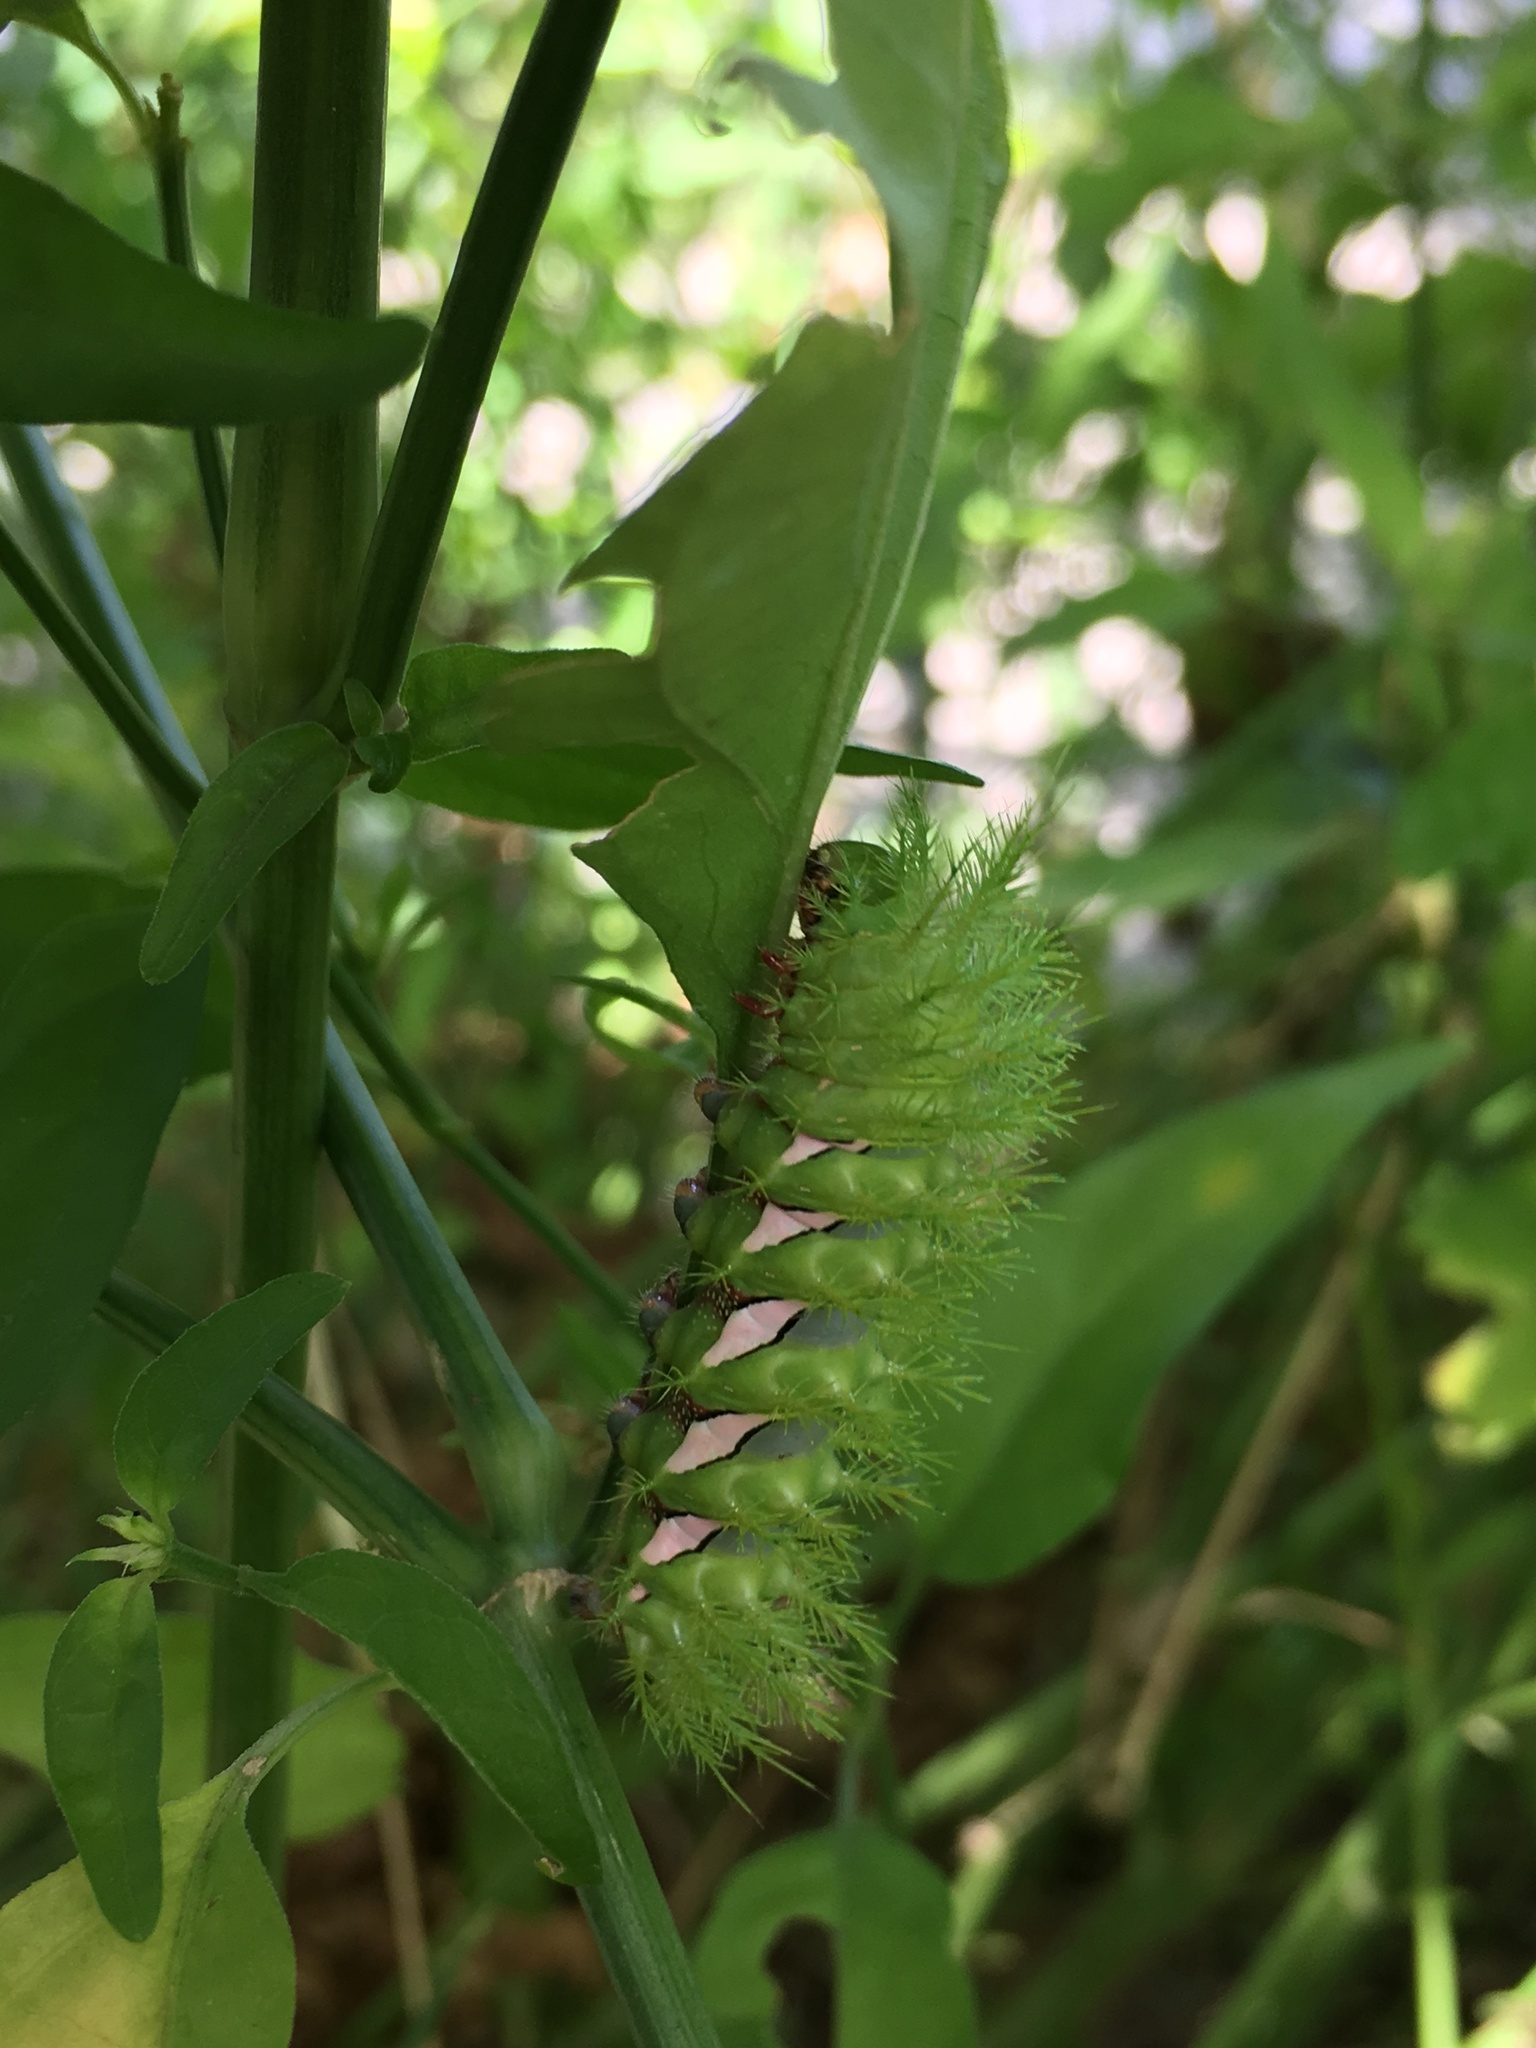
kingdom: Animalia
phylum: Arthropoda
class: Insecta
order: Lepidoptera
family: Saturniidae
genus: Automeris
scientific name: Automeris naranja
